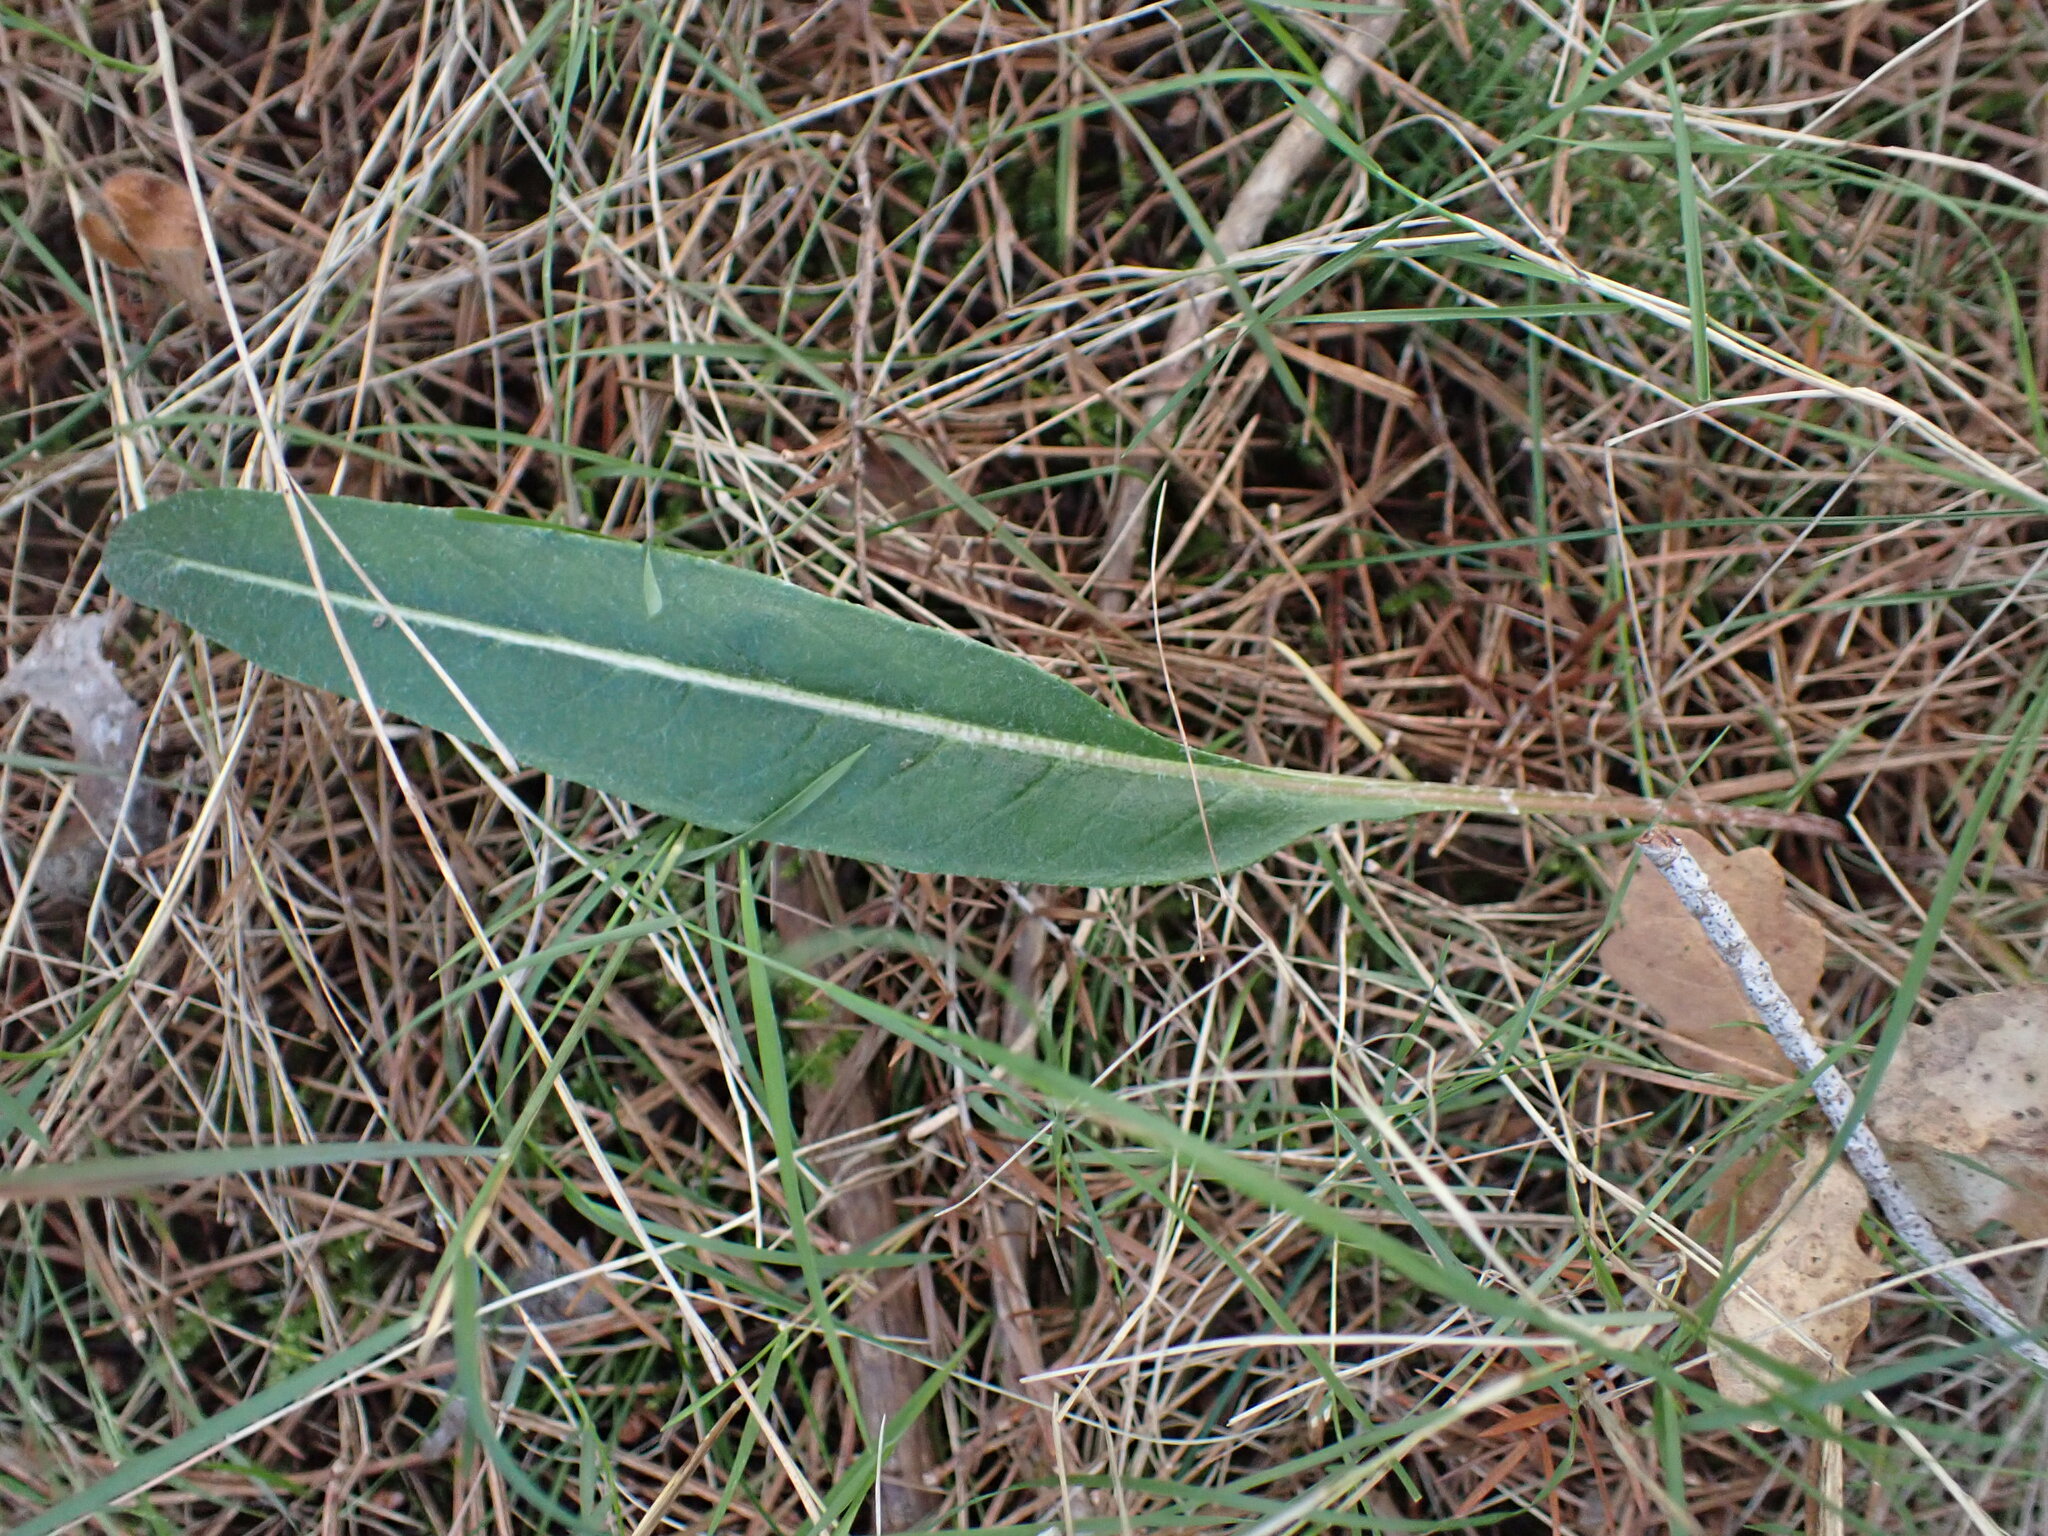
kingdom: Plantae
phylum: Tracheophyta
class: Magnoliopsida
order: Asterales
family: Asteraceae
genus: Leuzea
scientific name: Leuzea conifera
